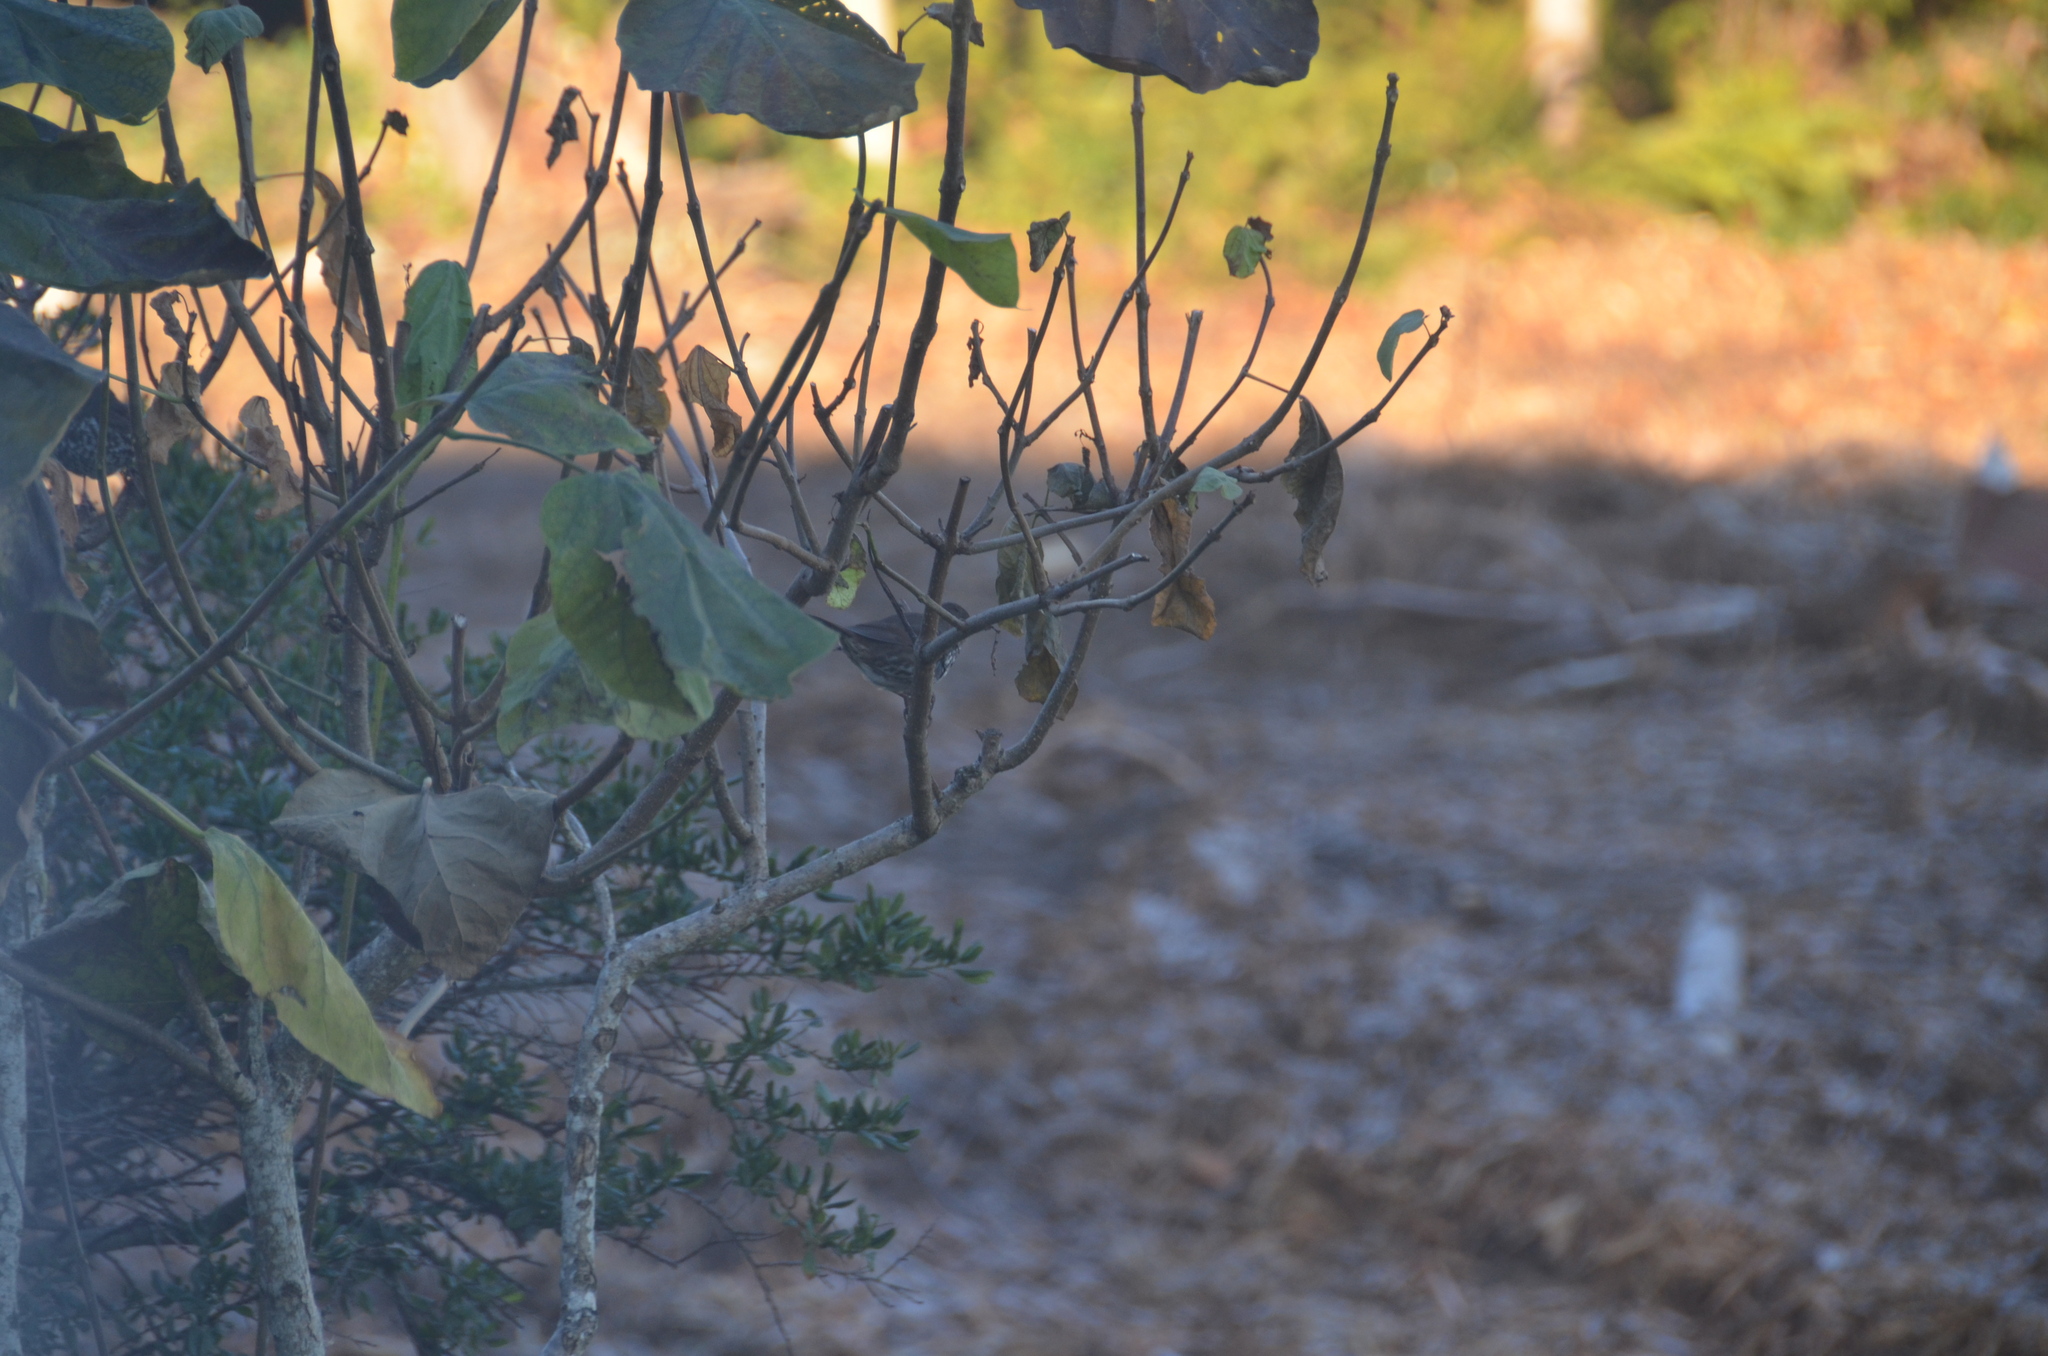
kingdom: Animalia
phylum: Chordata
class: Aves
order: Passeriformes
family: Passerellidae
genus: Passerella
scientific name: Passerella iliaca
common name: Fox sparrow
